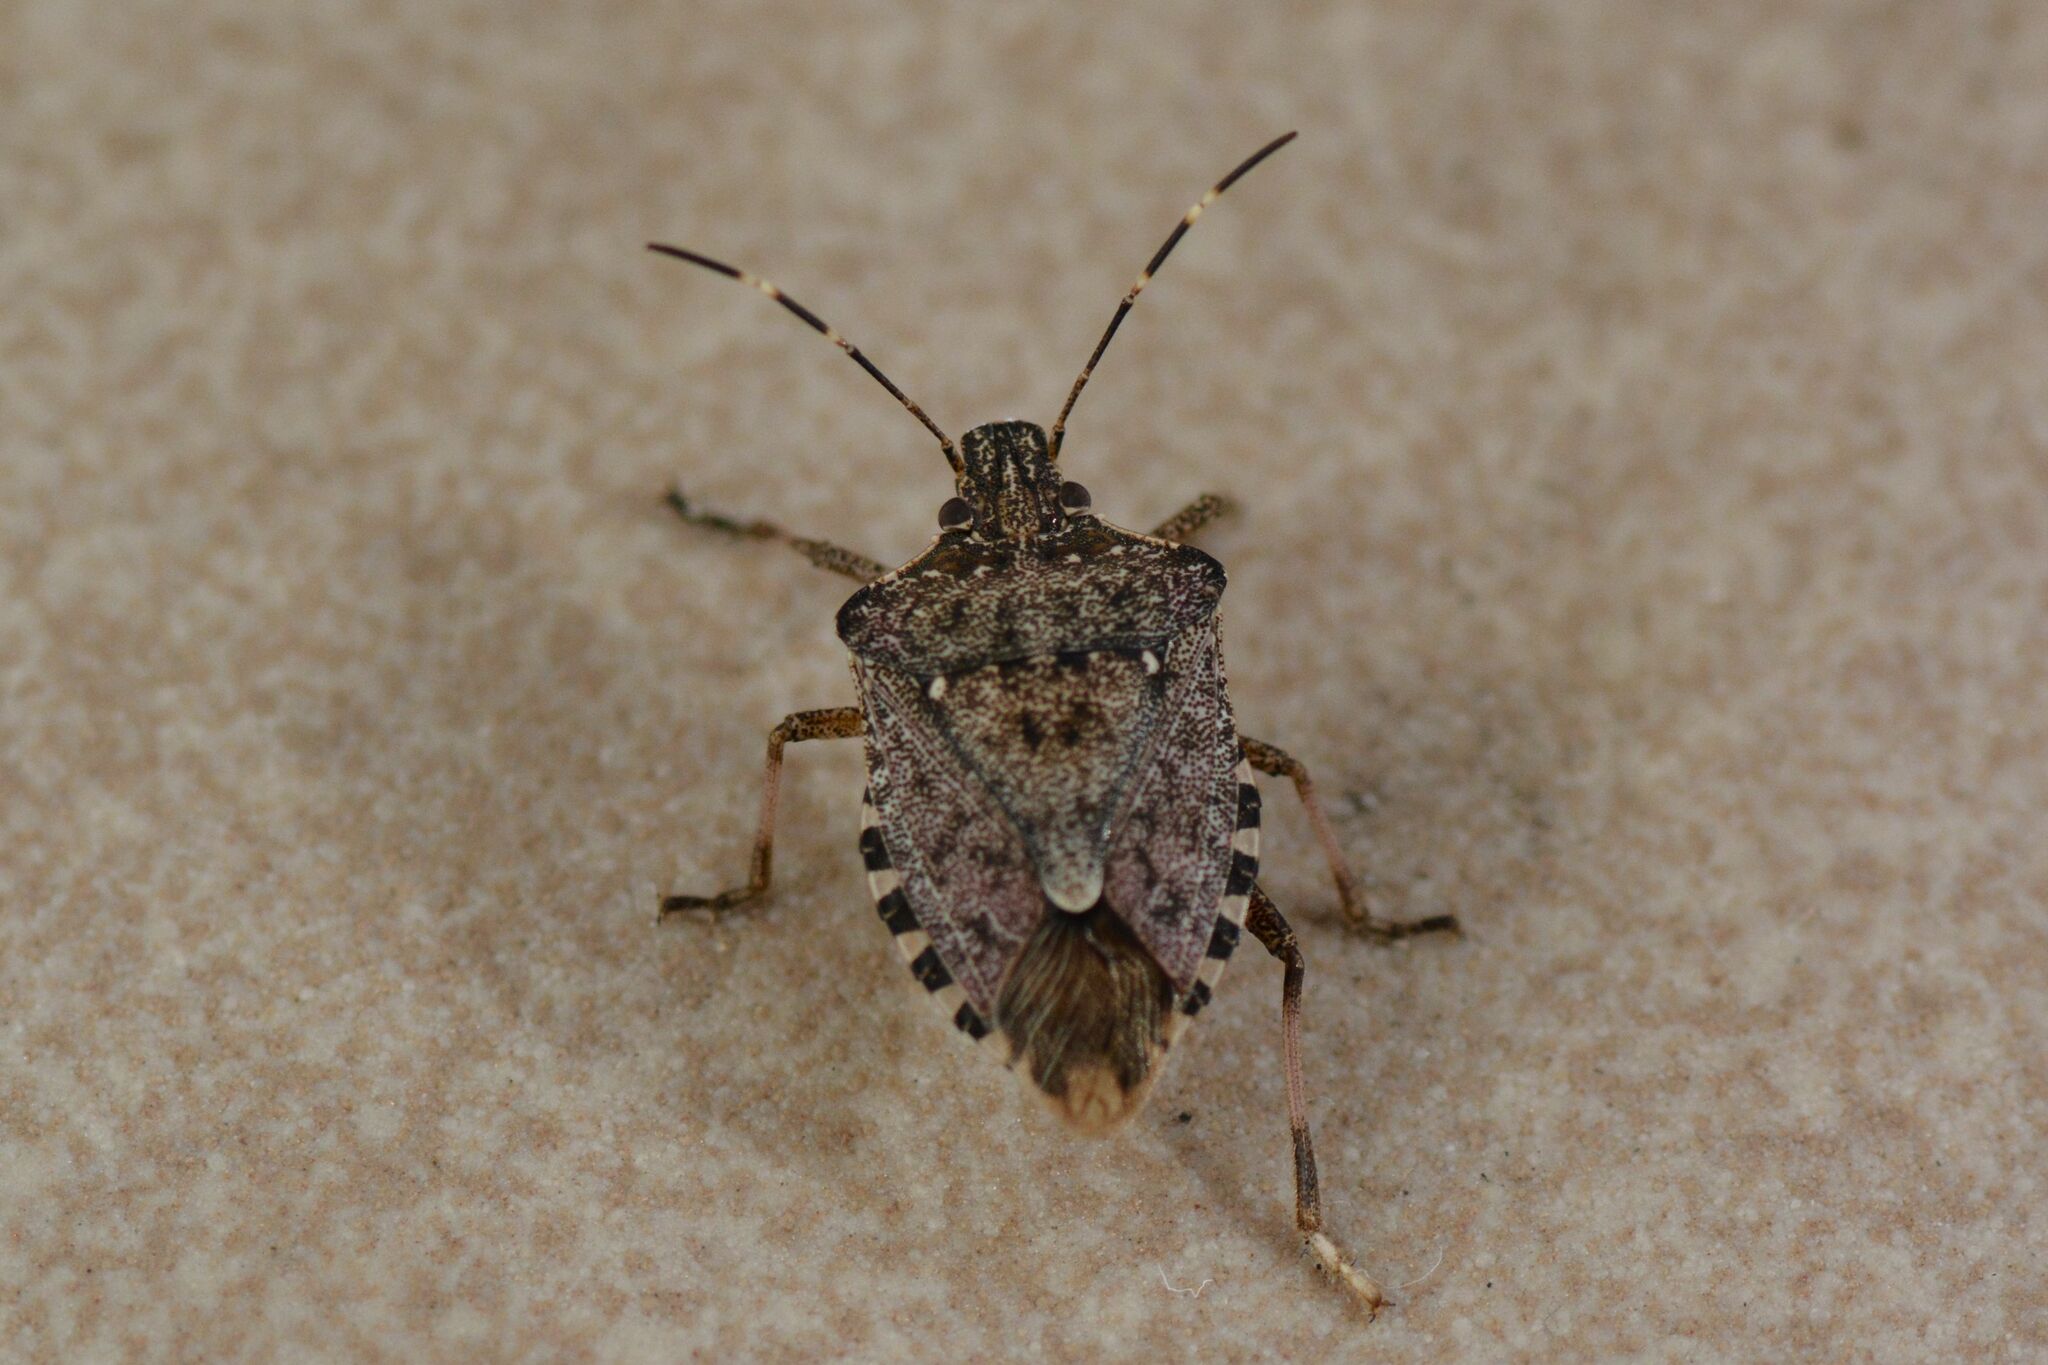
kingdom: Animalia
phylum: Arthropoda
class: Insecta
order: Hemiptera
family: Pentatomidae
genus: Halyomorpha
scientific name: Halyomorpha halys
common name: Brown marmorated stink bug
